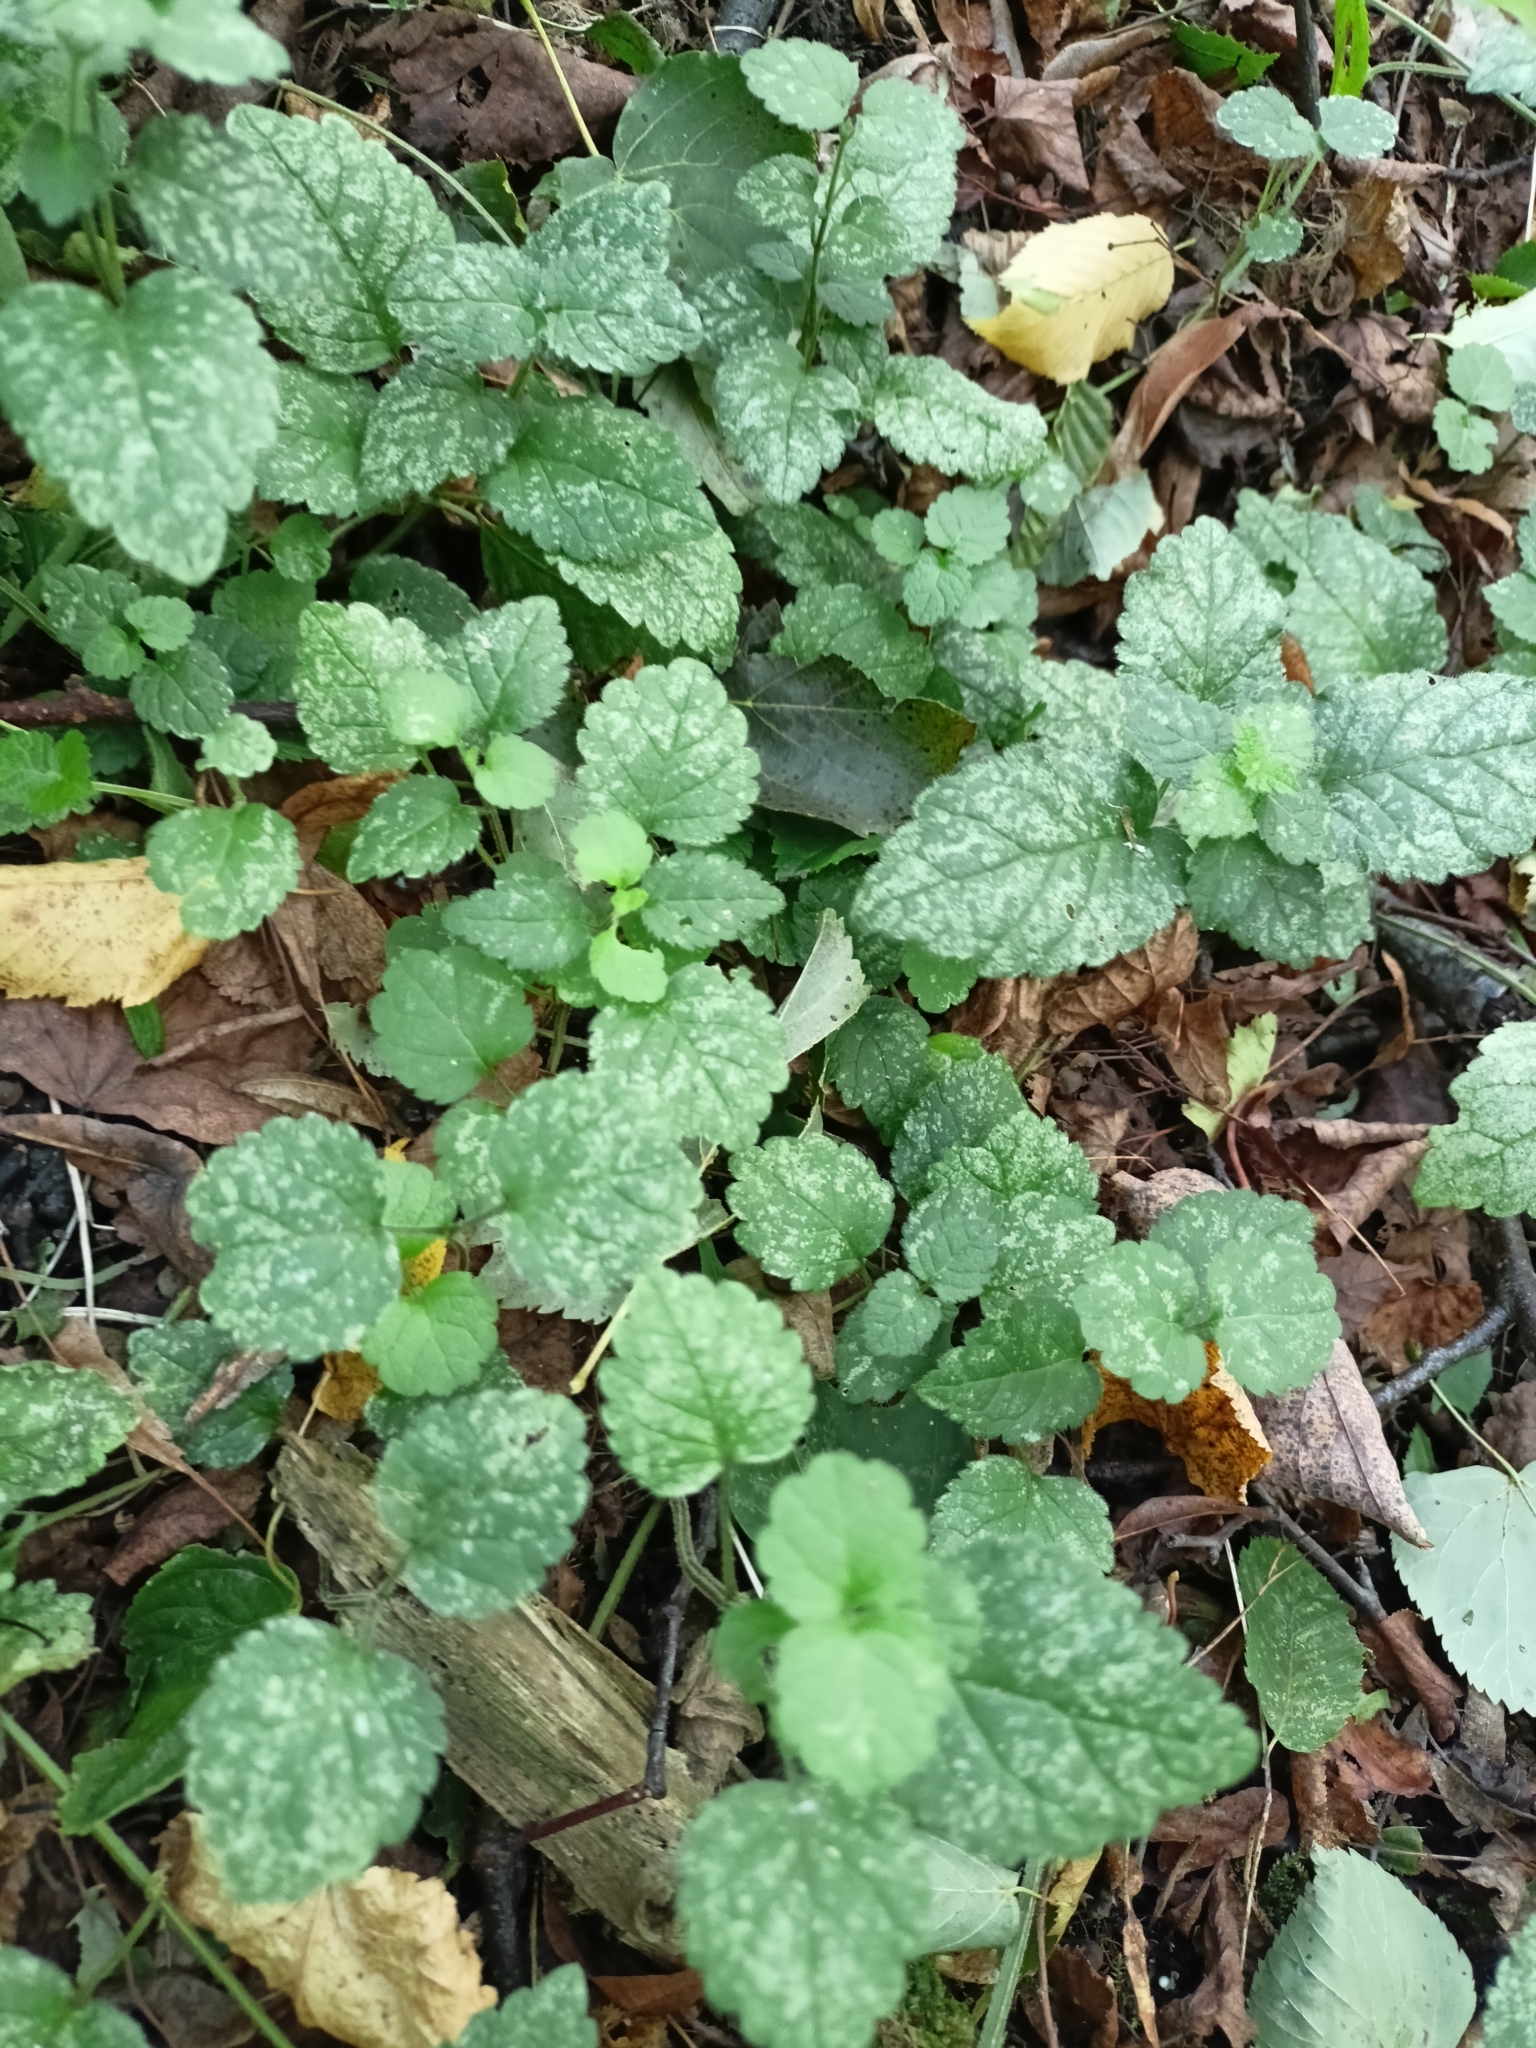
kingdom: Plantae
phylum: Tracheophyta
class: Magnoliopsida
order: Lamiales
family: Lamiaceae
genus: Lamium
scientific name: Lamium galeobdolon
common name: Yellow archangel
